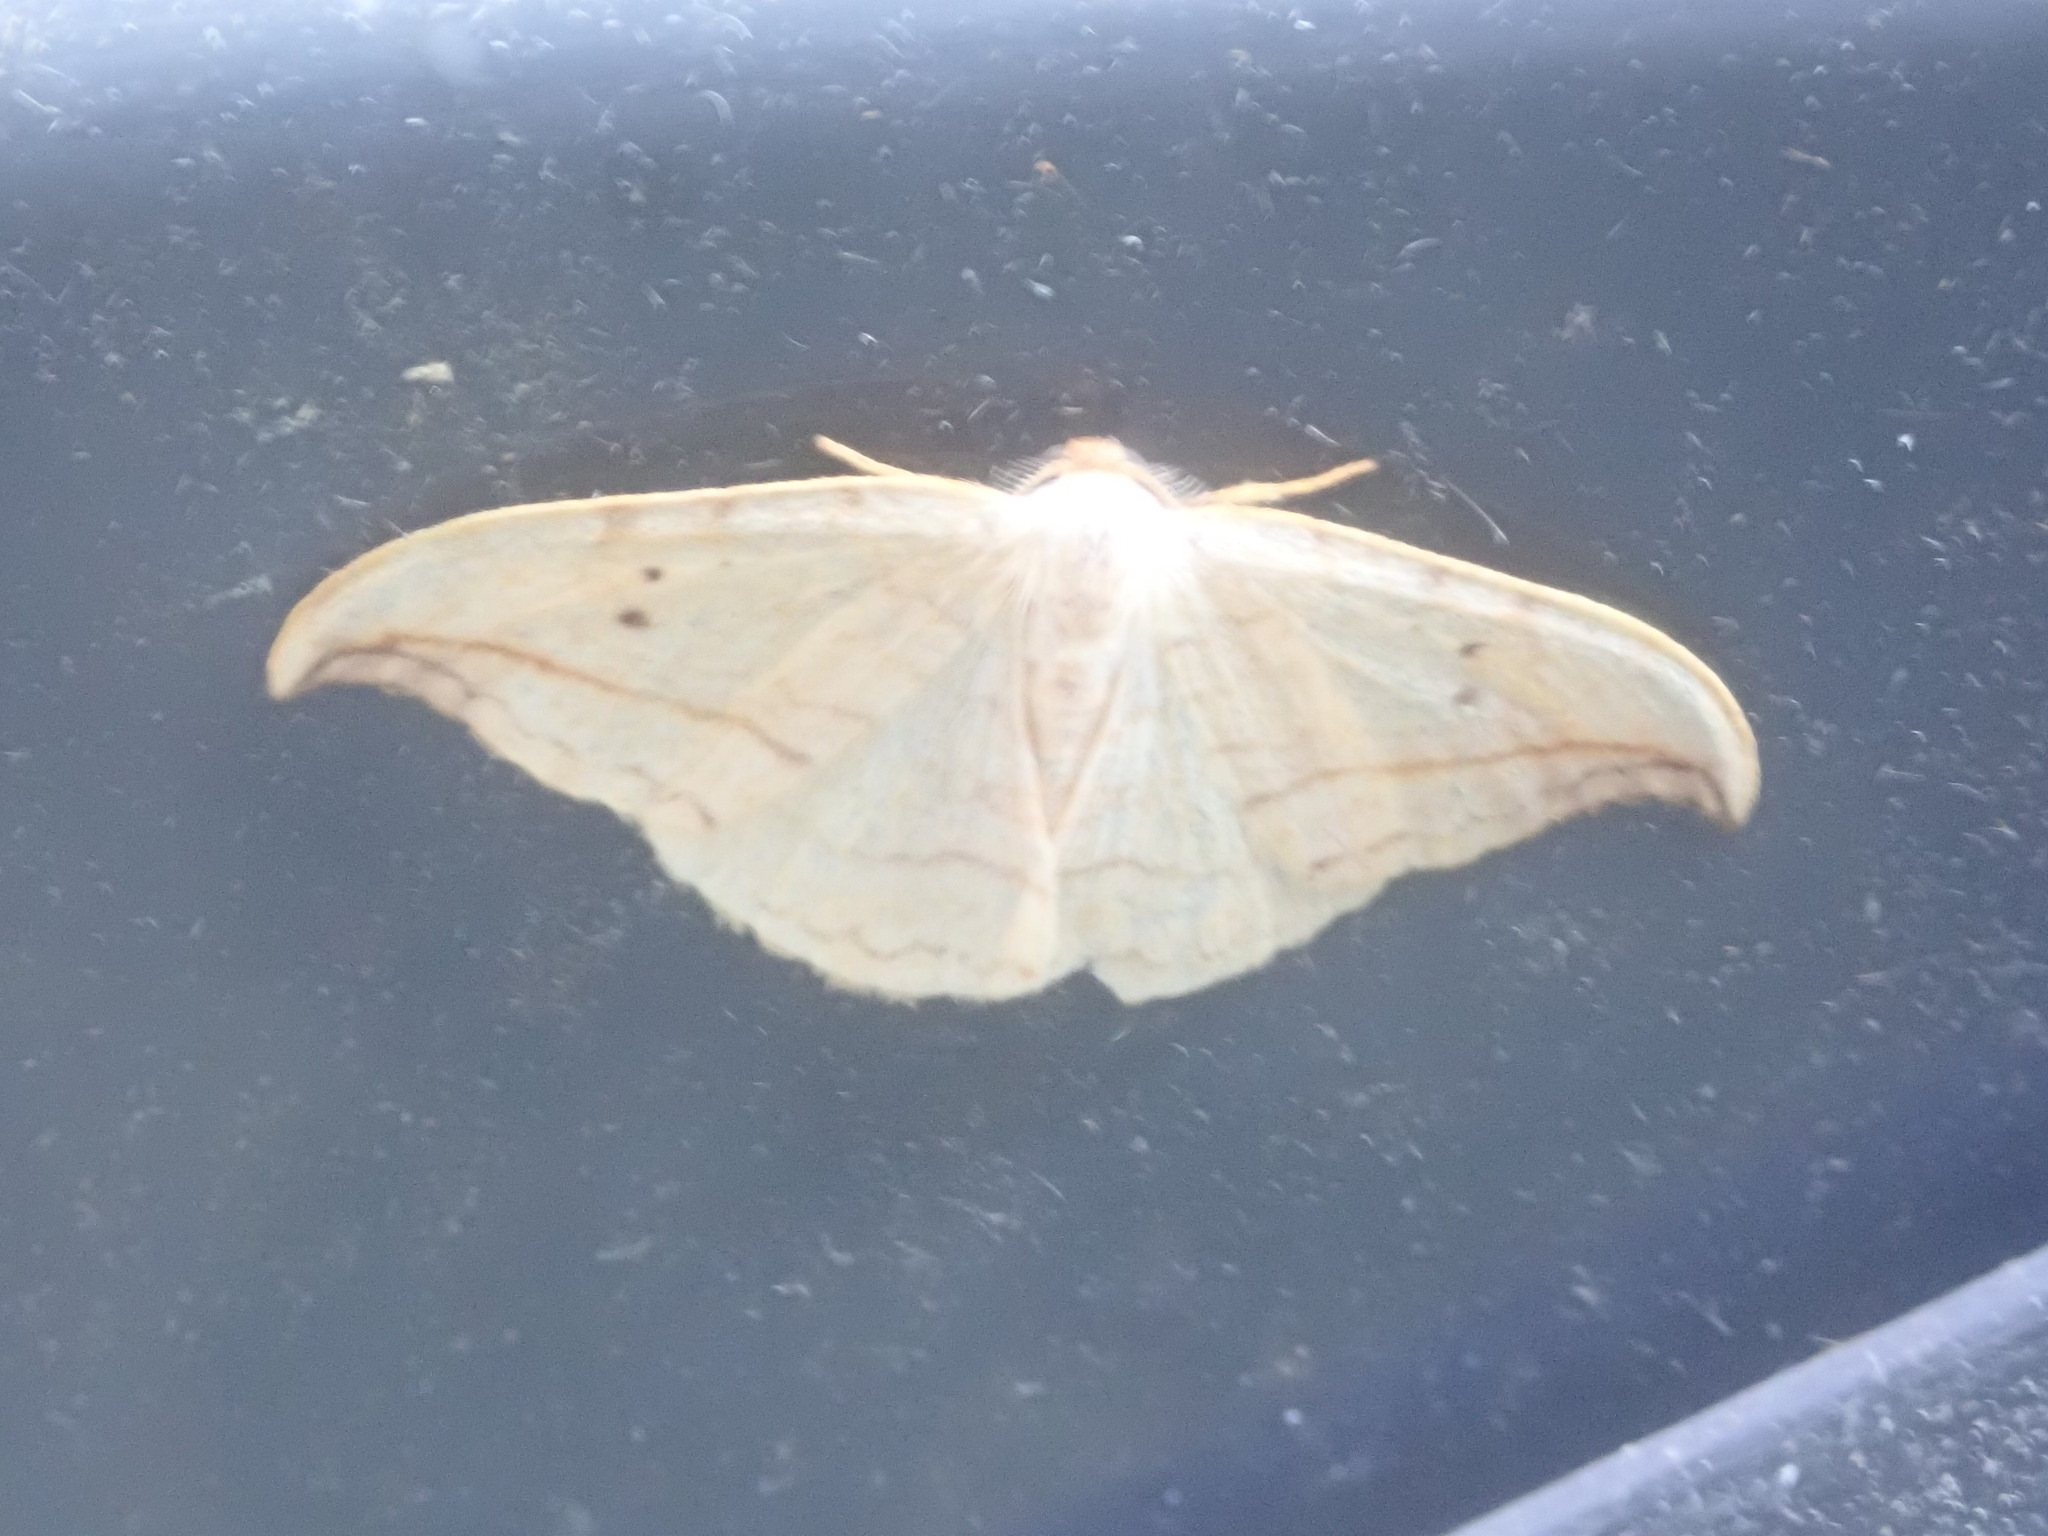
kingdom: Animalia
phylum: Arthropoda
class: Insecta
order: Lepidoptera
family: Drepanidae
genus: Drepana
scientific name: Drepana arcuata
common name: Arched hooktip moth
